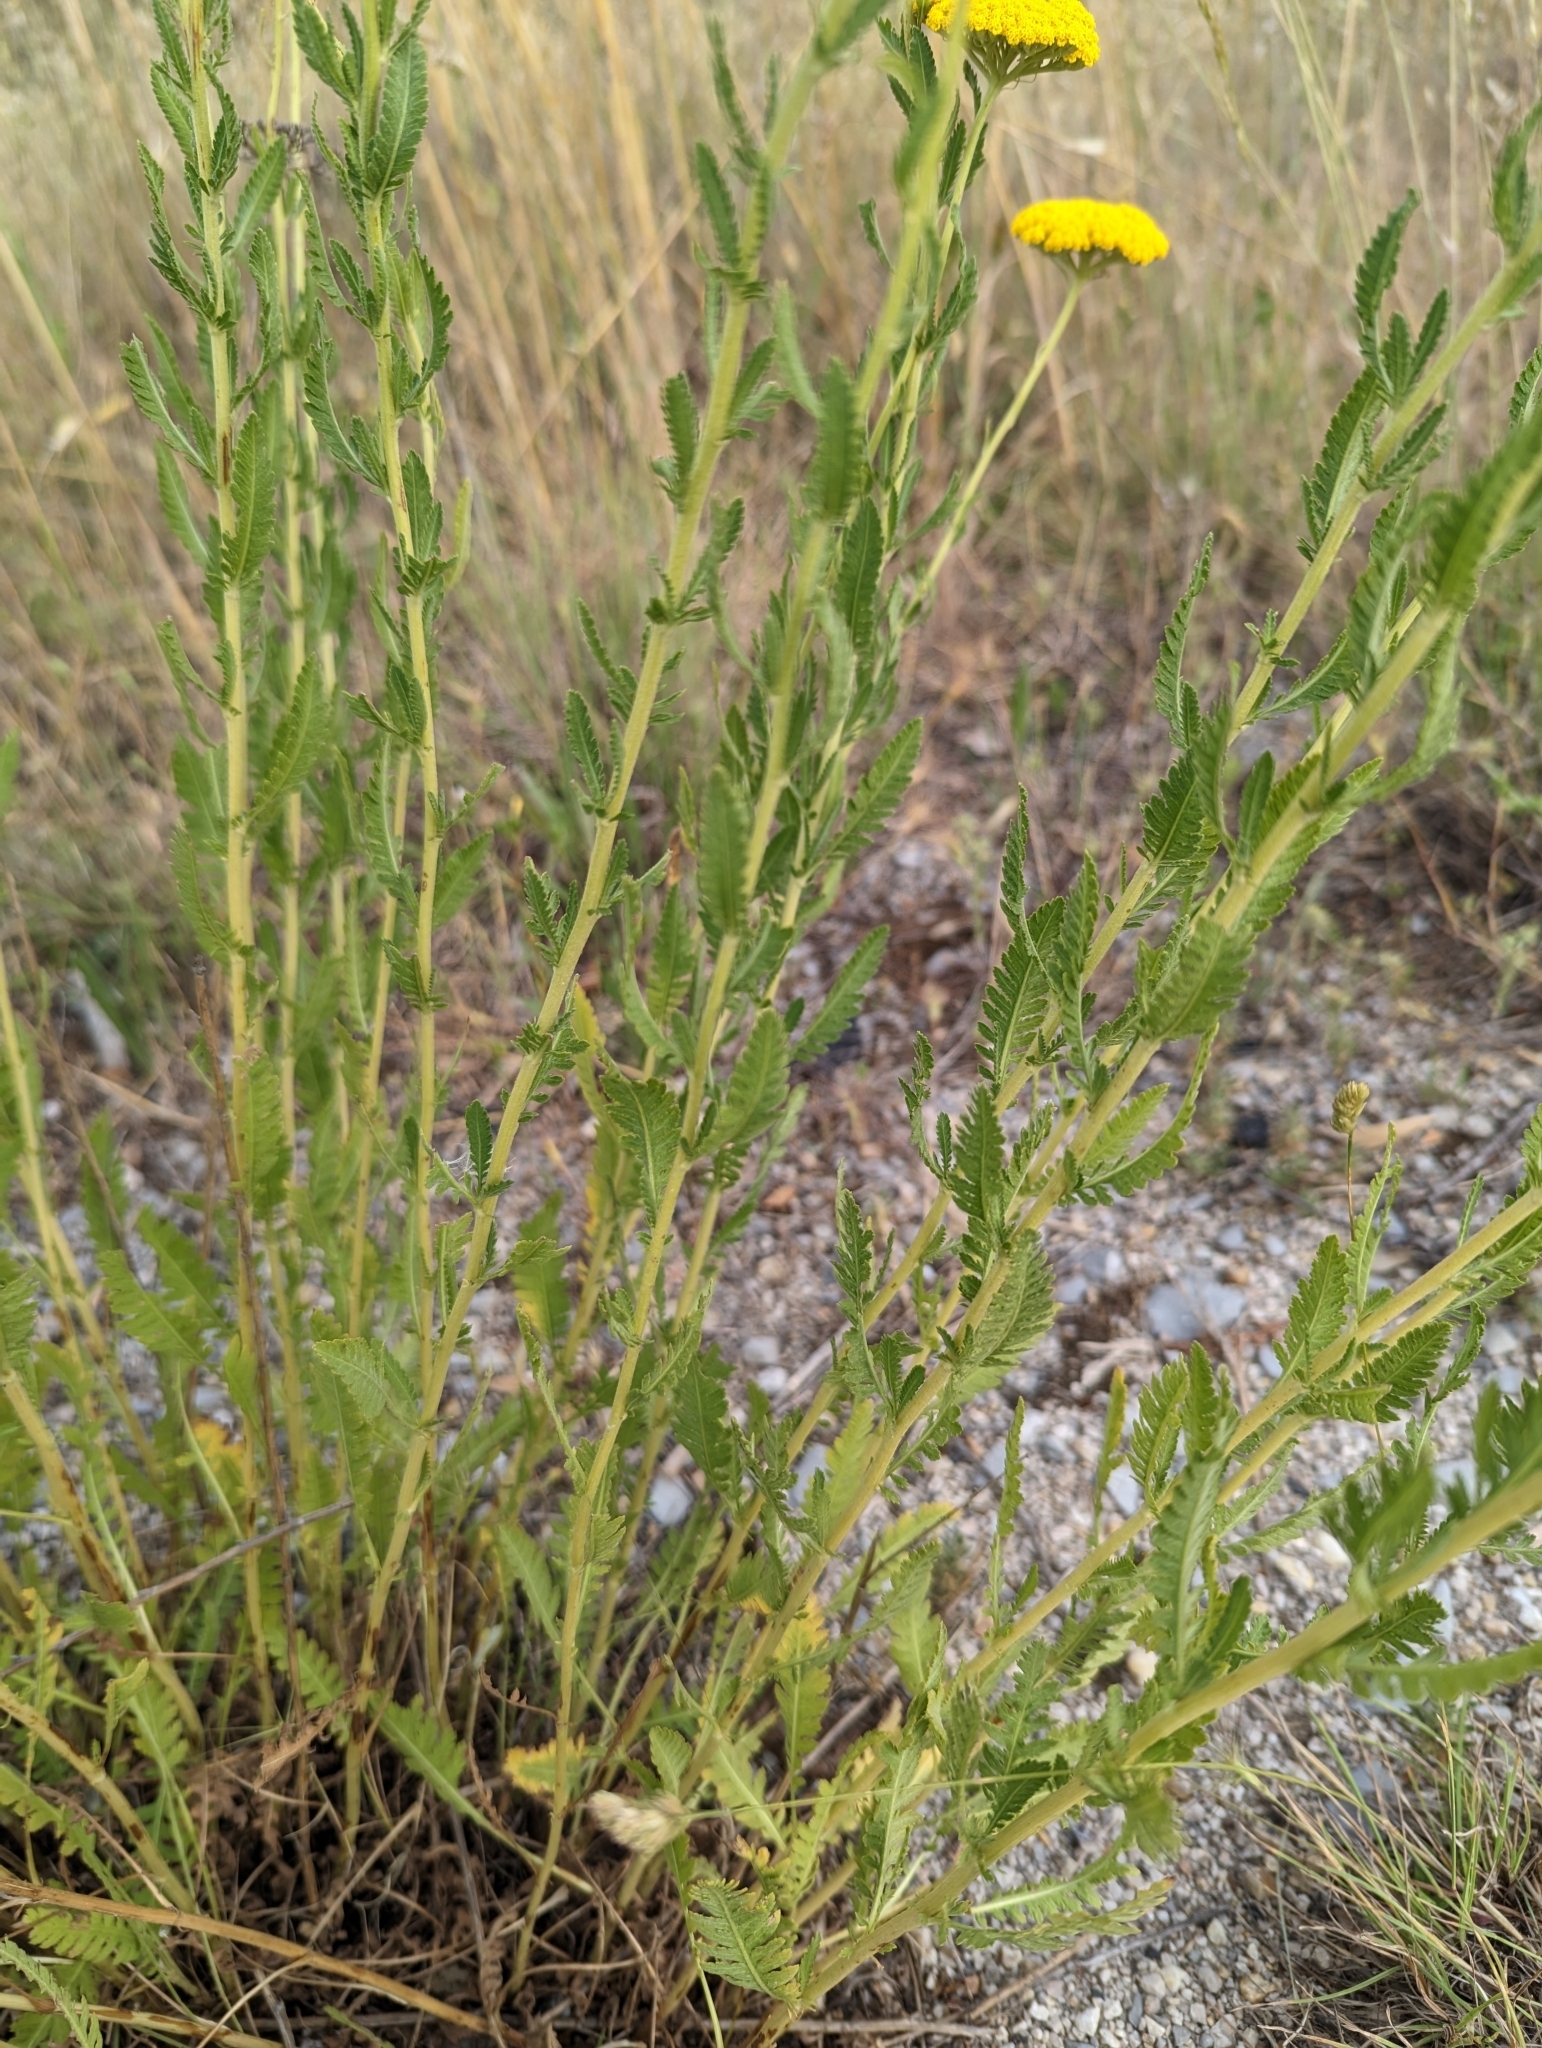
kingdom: Plantae
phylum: Tracheophyta
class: Magnoliopsida
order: Asterales
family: Asteraceae
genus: Achillea
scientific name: Achillea ageratum
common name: Sweet-nancy
